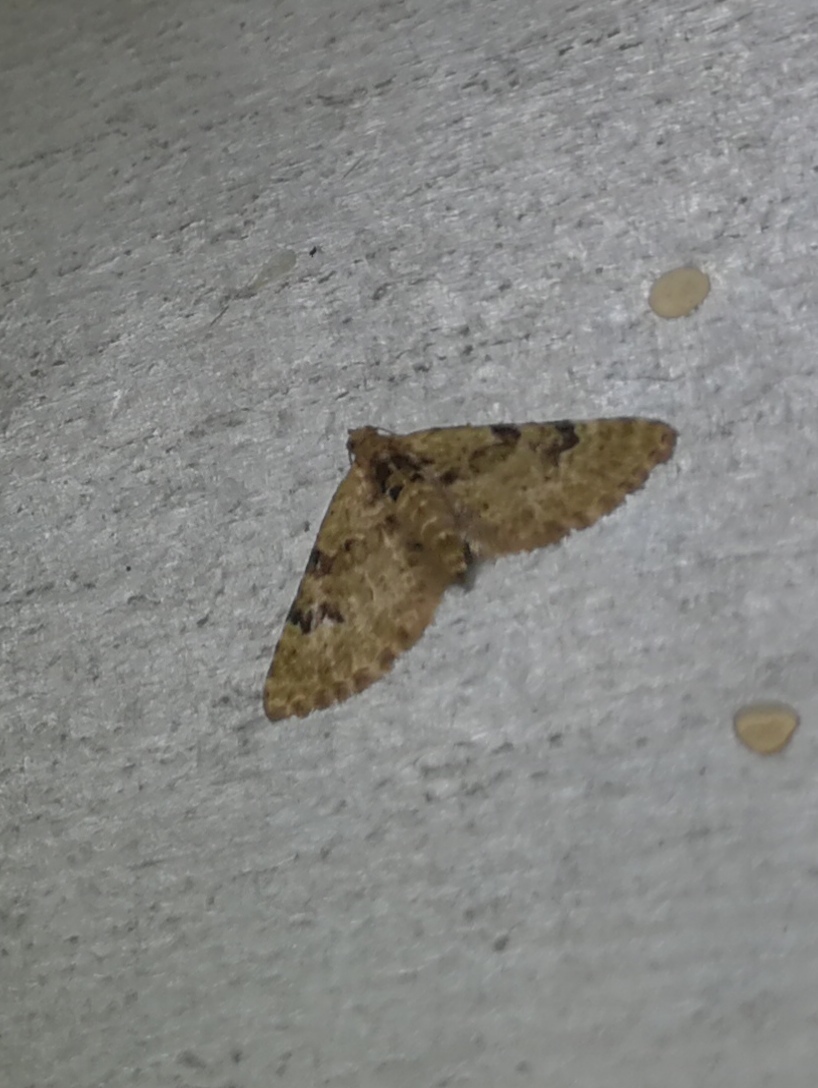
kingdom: Animalia
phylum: Arthropoda
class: Insecta
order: Lepidoptera
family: Geometridae
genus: Chloroclystis
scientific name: Chloroclystis v-ata
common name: V-pug
